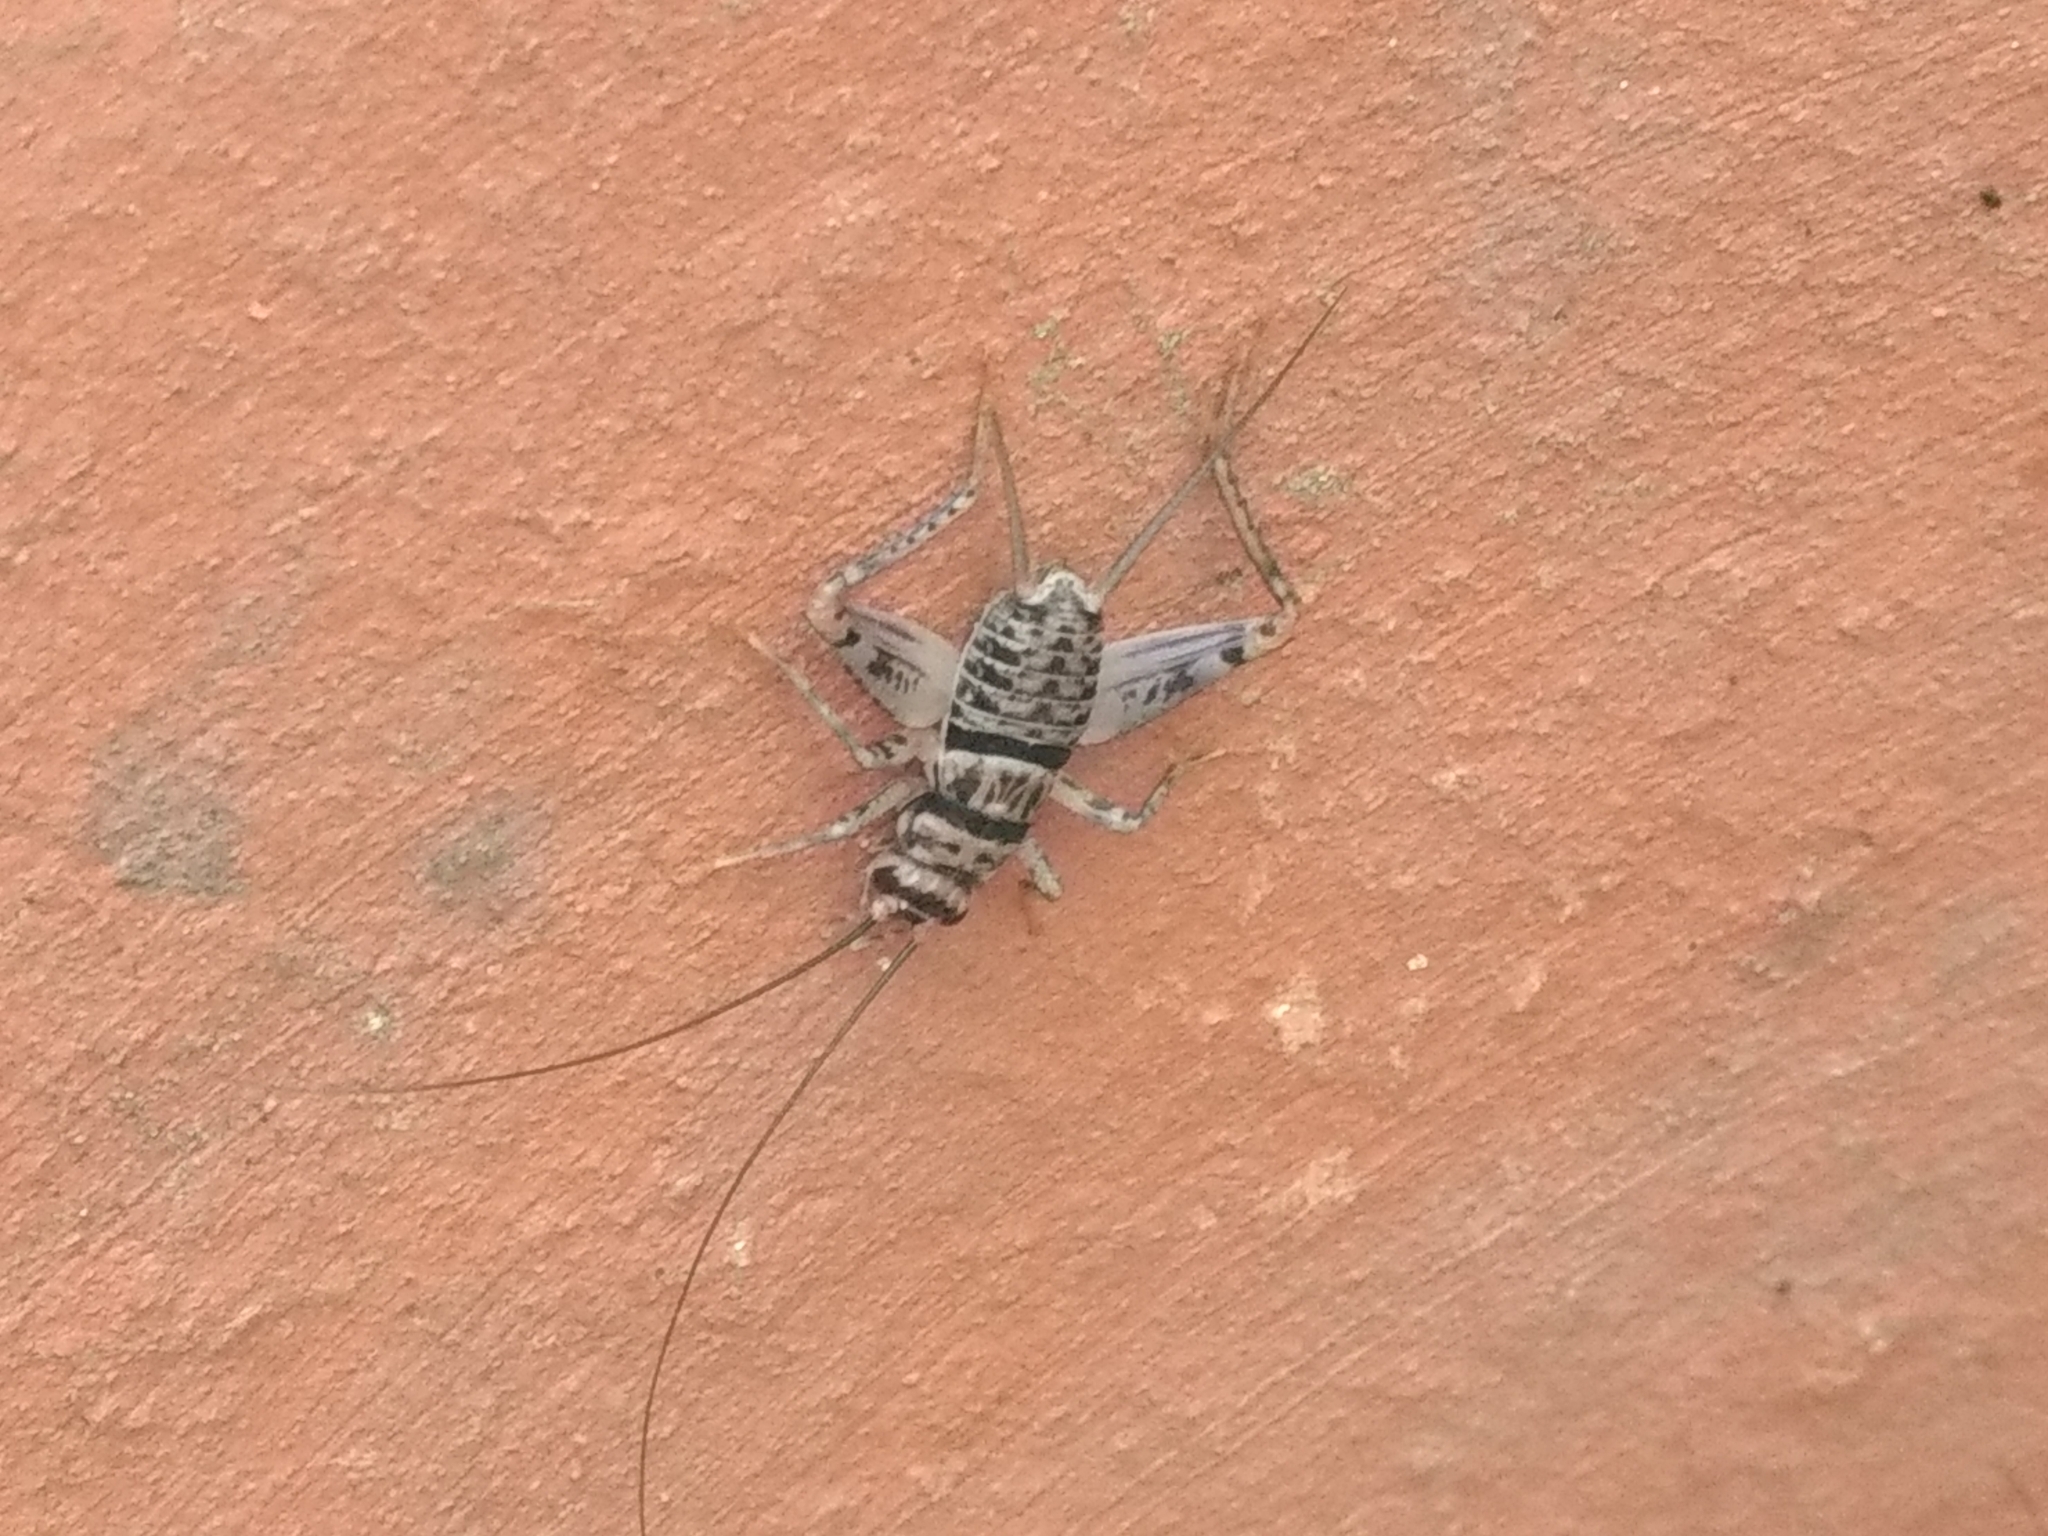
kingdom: Animalia
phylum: Arthropoda
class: Insecta
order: Orthoptera
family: Gryllidae
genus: Gryllodes
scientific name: Gryllodes sigillatus
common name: Tropical house cricket
